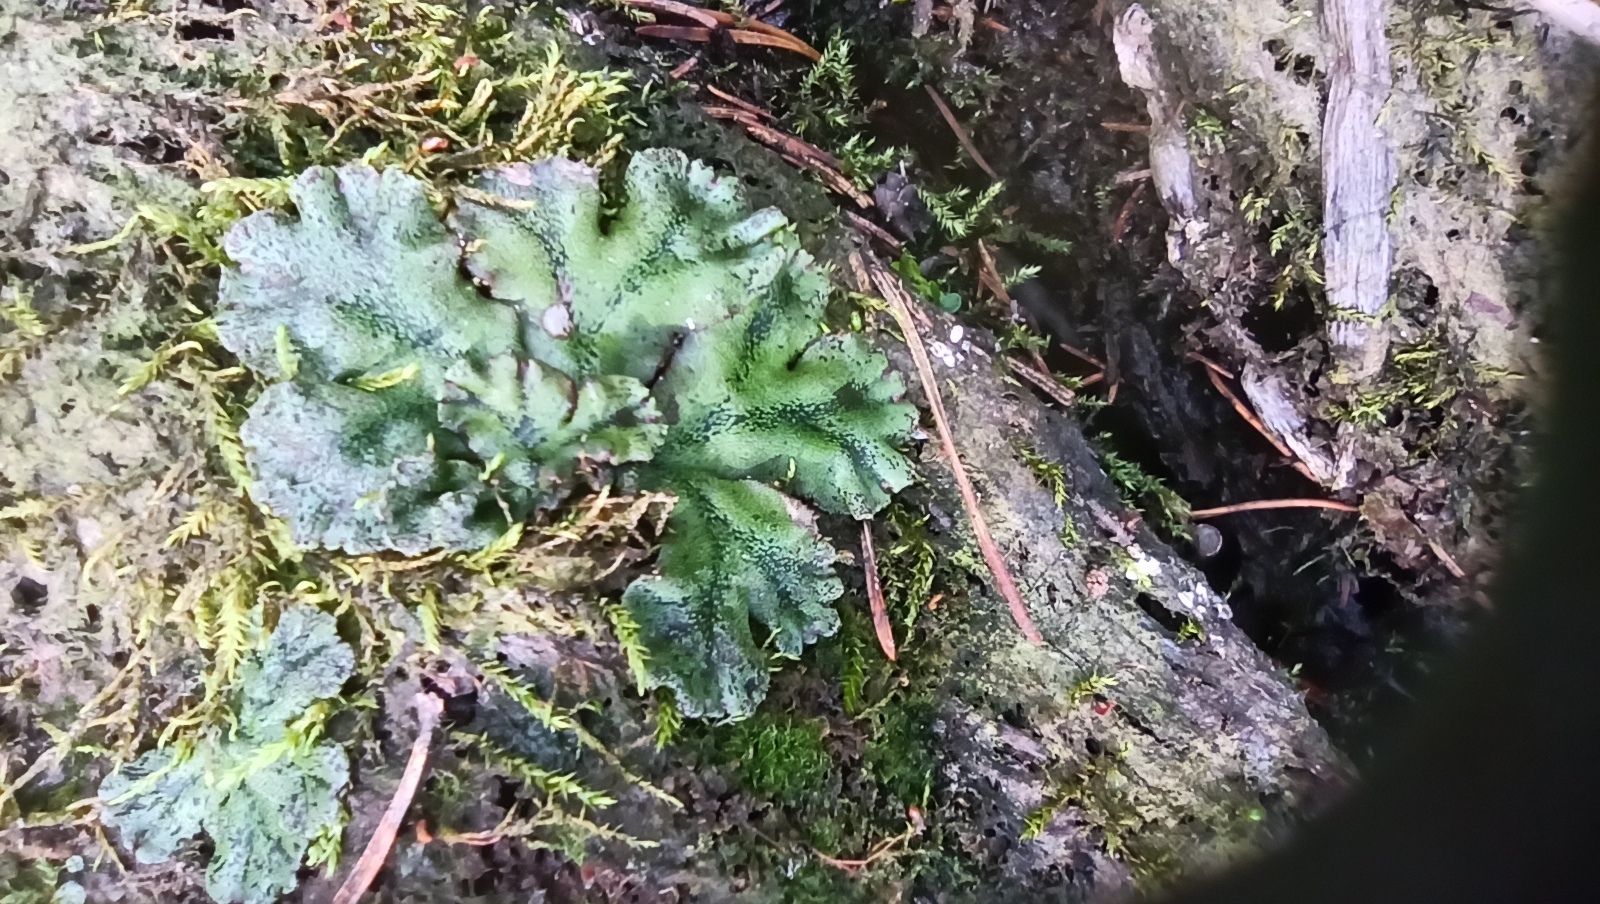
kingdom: Plantae
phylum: Marchantiophyta
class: Marchantiopsida
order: Marchantiales
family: Marchantiaceae
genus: Marchantia
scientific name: Marchantia polymorpha
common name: Common liverwort
